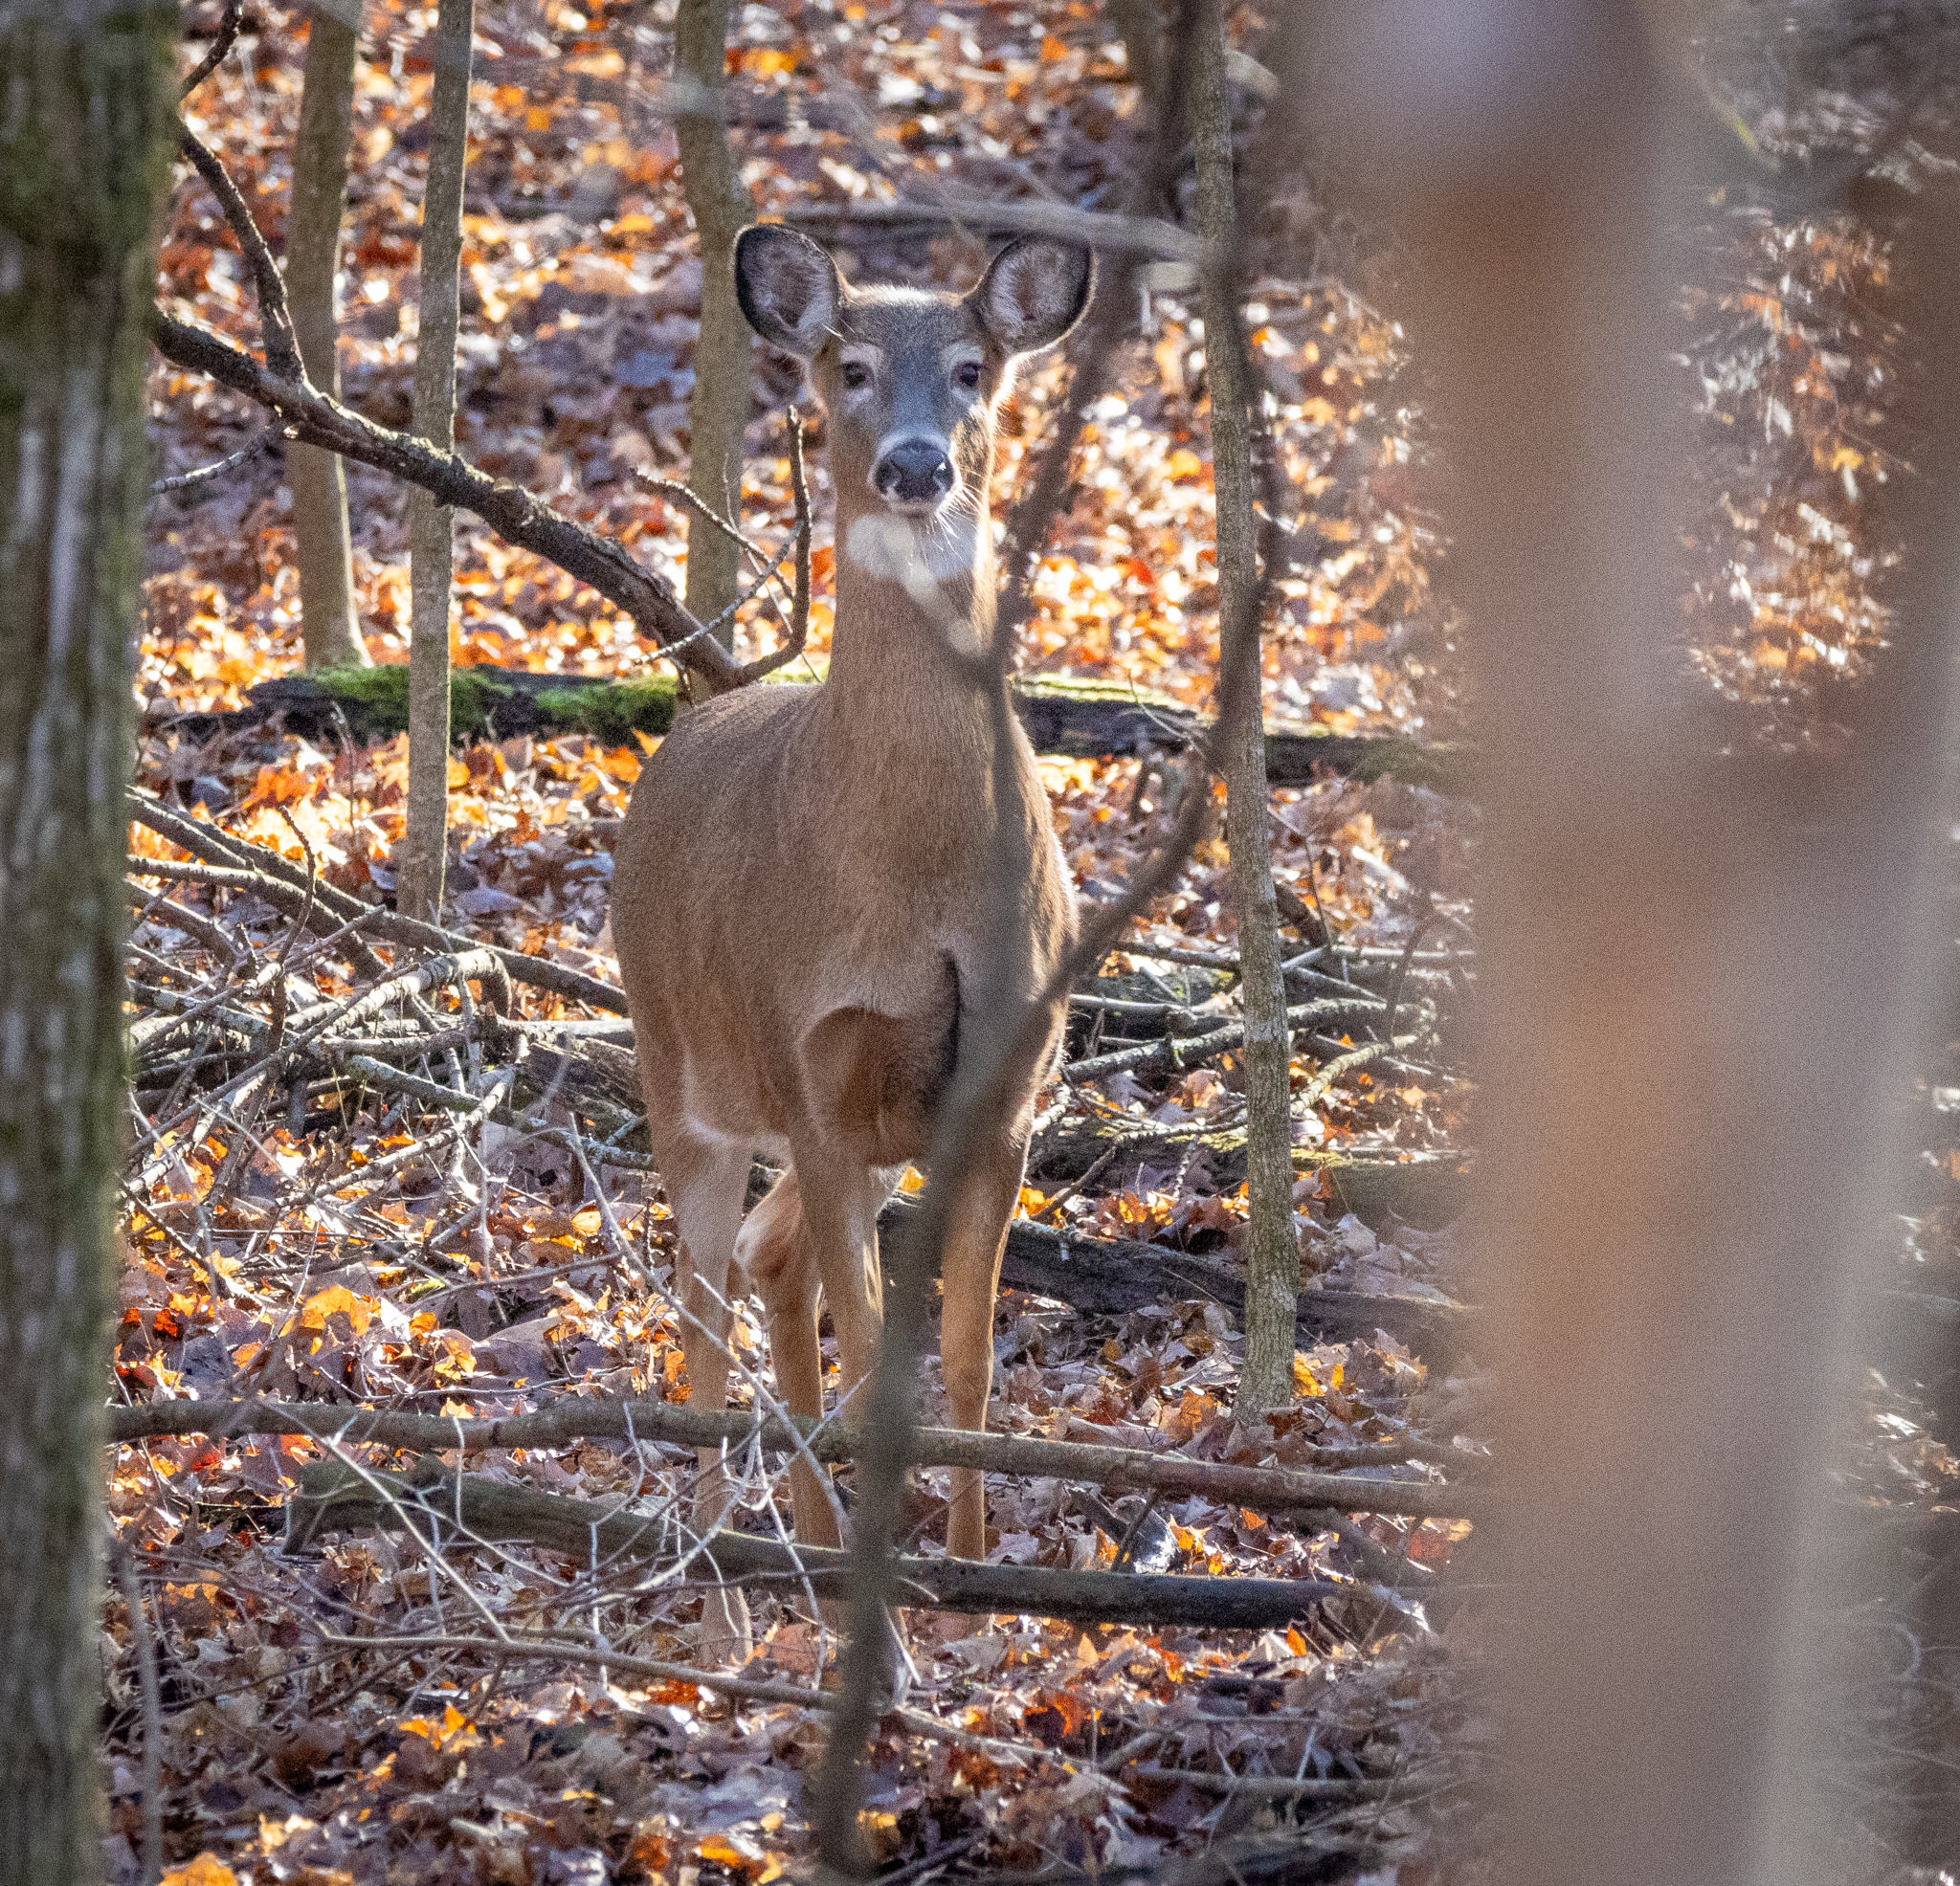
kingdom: Animalia
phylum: Chordata
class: Mammalia
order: Artiodactyla
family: Cervidae
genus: Odocoileus
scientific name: Odocoileus virginianus
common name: White-tailed deer
